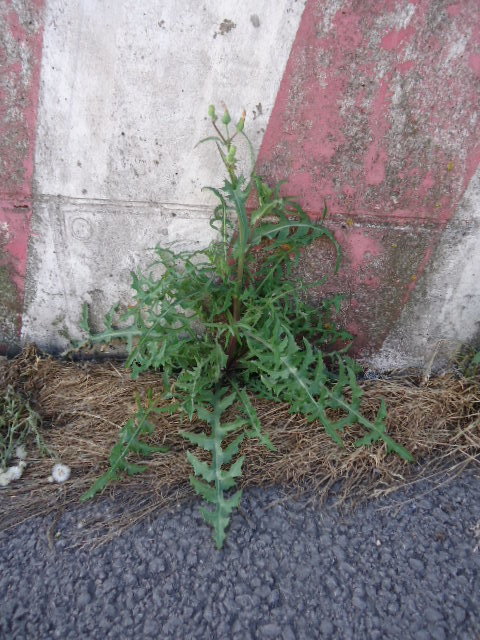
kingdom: Plantae
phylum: Tracheophyta
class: Magnoliopsida
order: Asterales
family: Asteraceae
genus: Sonchus
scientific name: Sonchus oleraceus
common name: Common sowthistle
